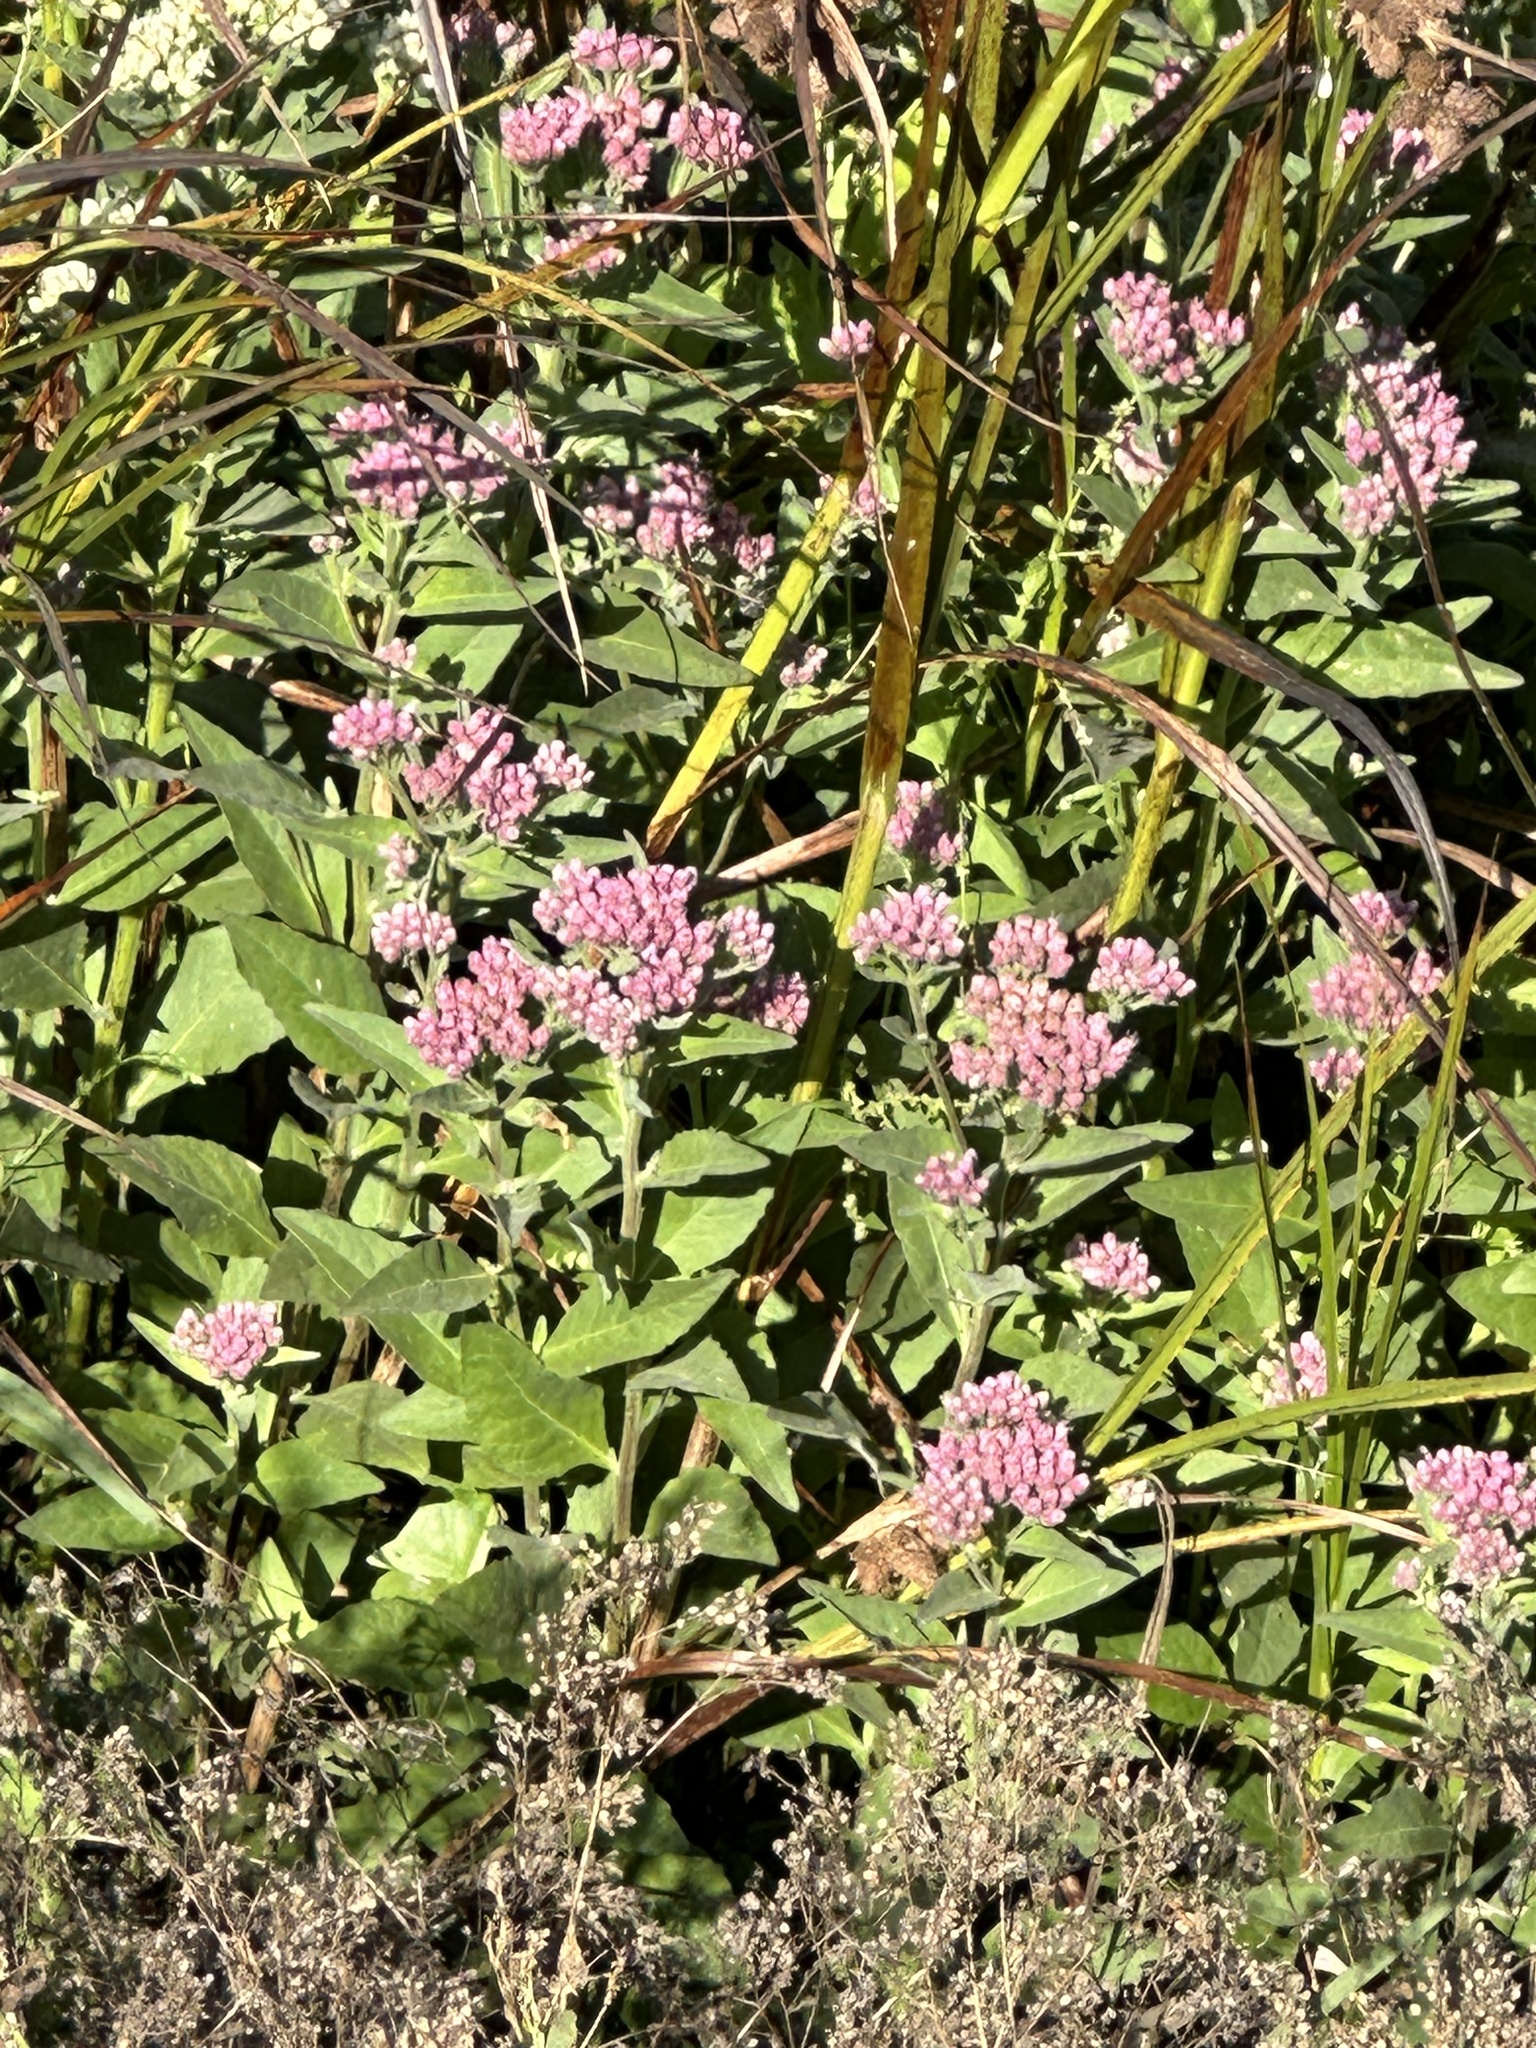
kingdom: Plantae
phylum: Tracheophyta
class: Magnoliopsida
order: Asterales
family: Asteraceae
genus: Pluchea
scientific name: Pluchea odorata
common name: Saltmarsh fleabane
